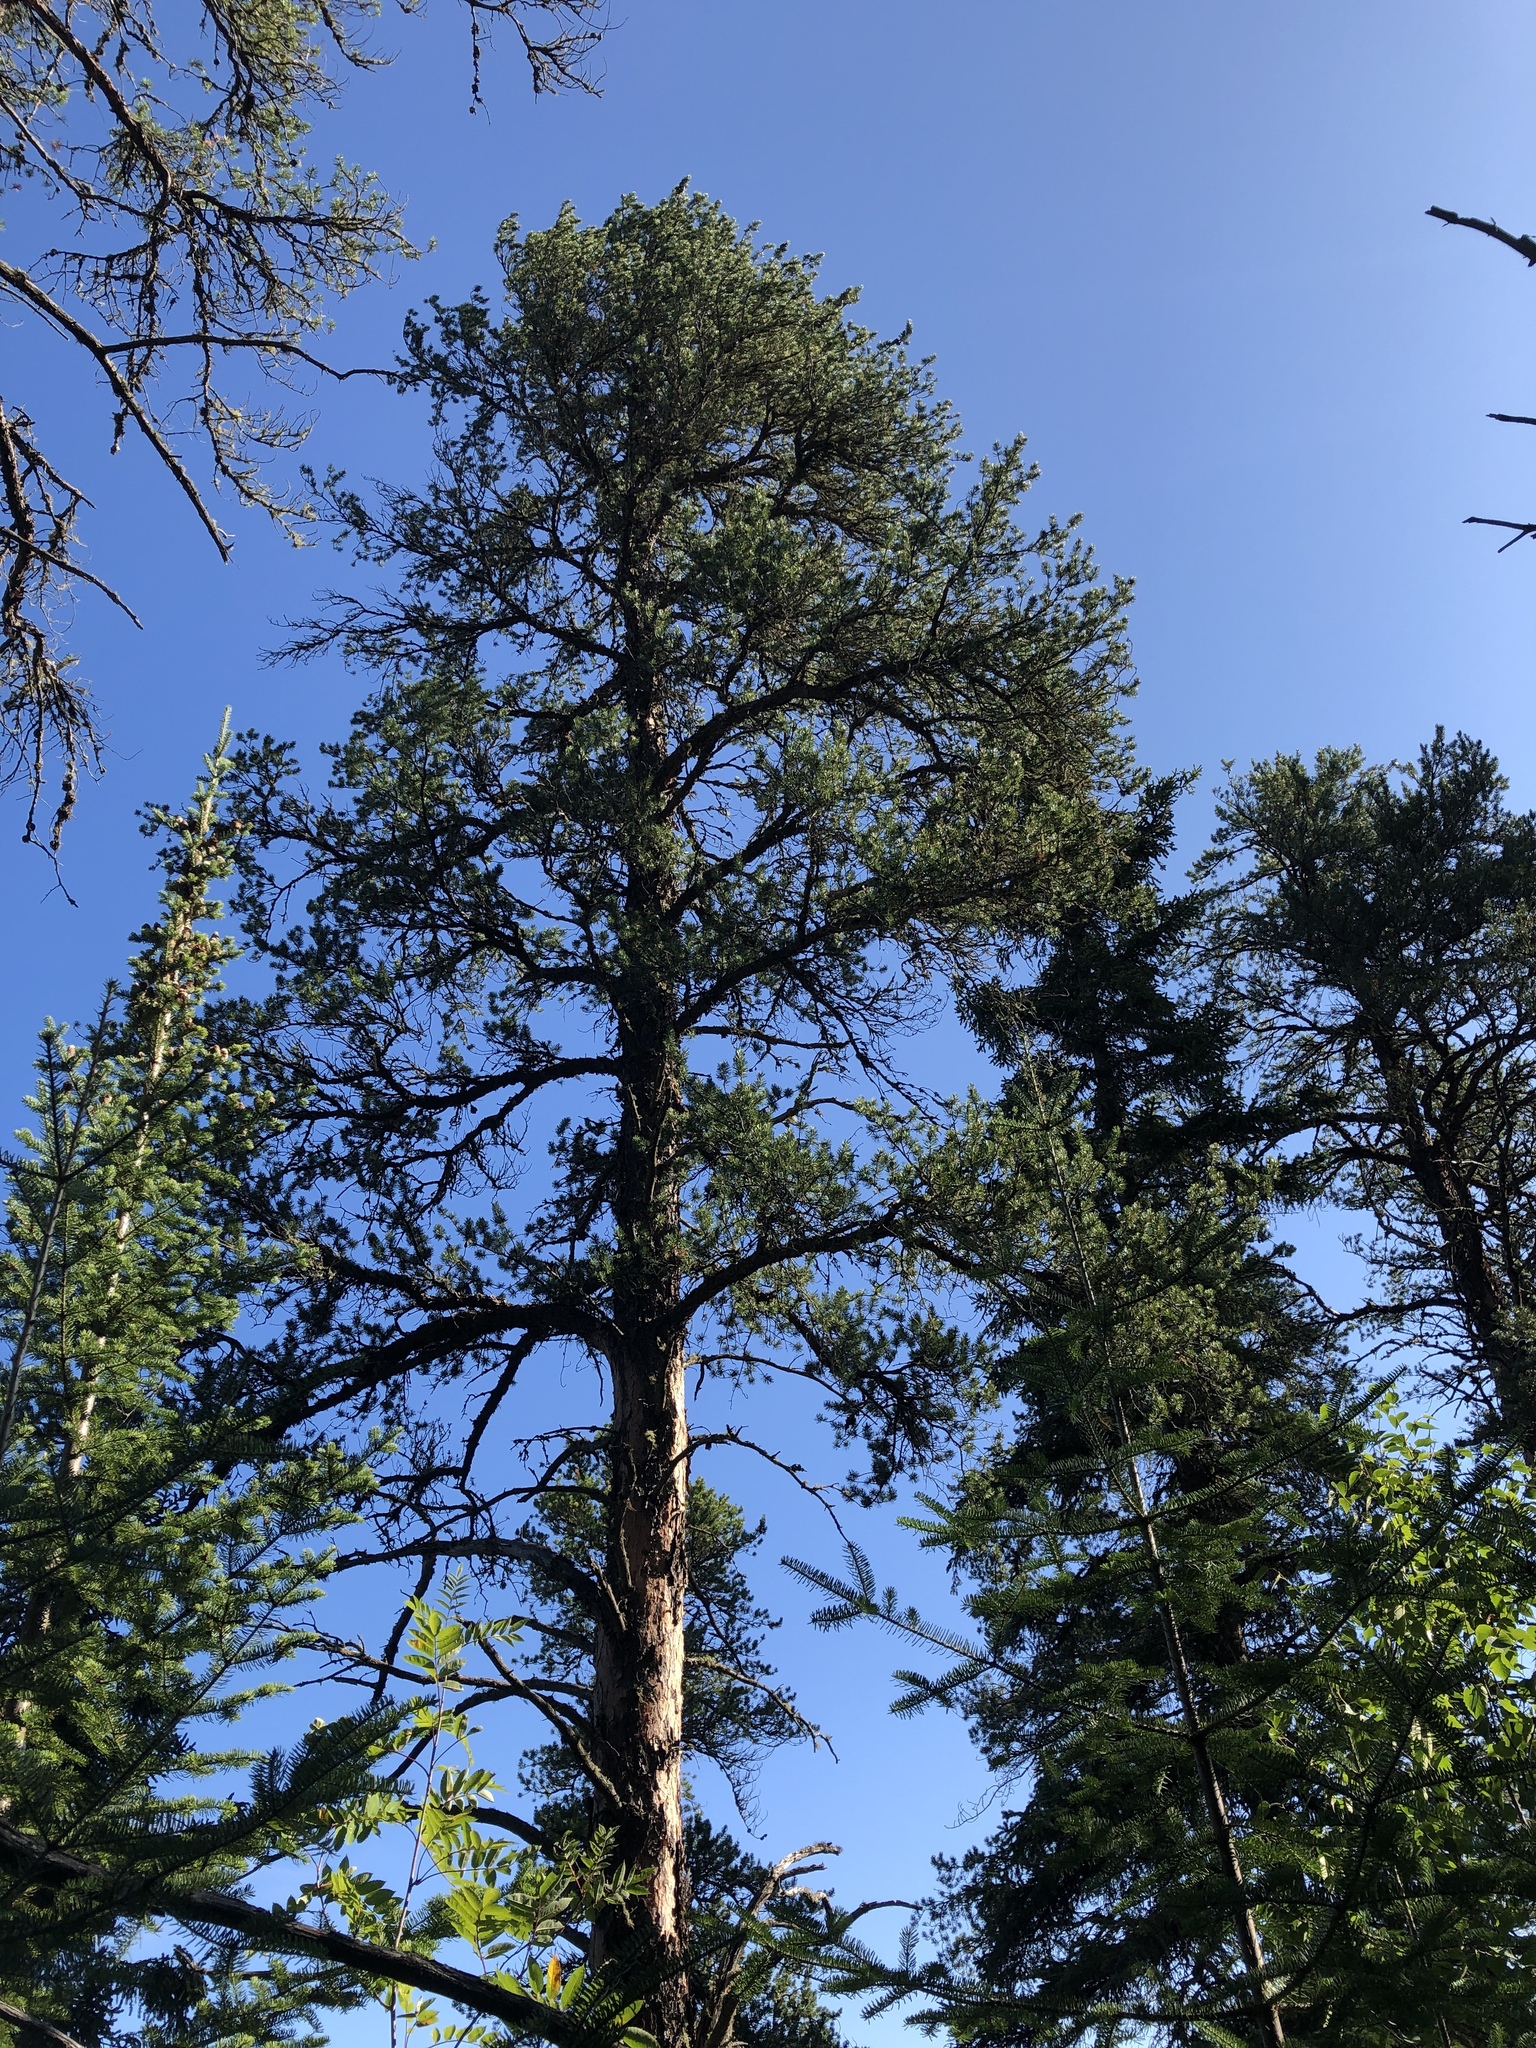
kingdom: Plantae
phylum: Tracheophyta
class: Pinopsida
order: Pinales
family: Pinaceae
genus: Pinus
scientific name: Pinus banksiana
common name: Jack pine
